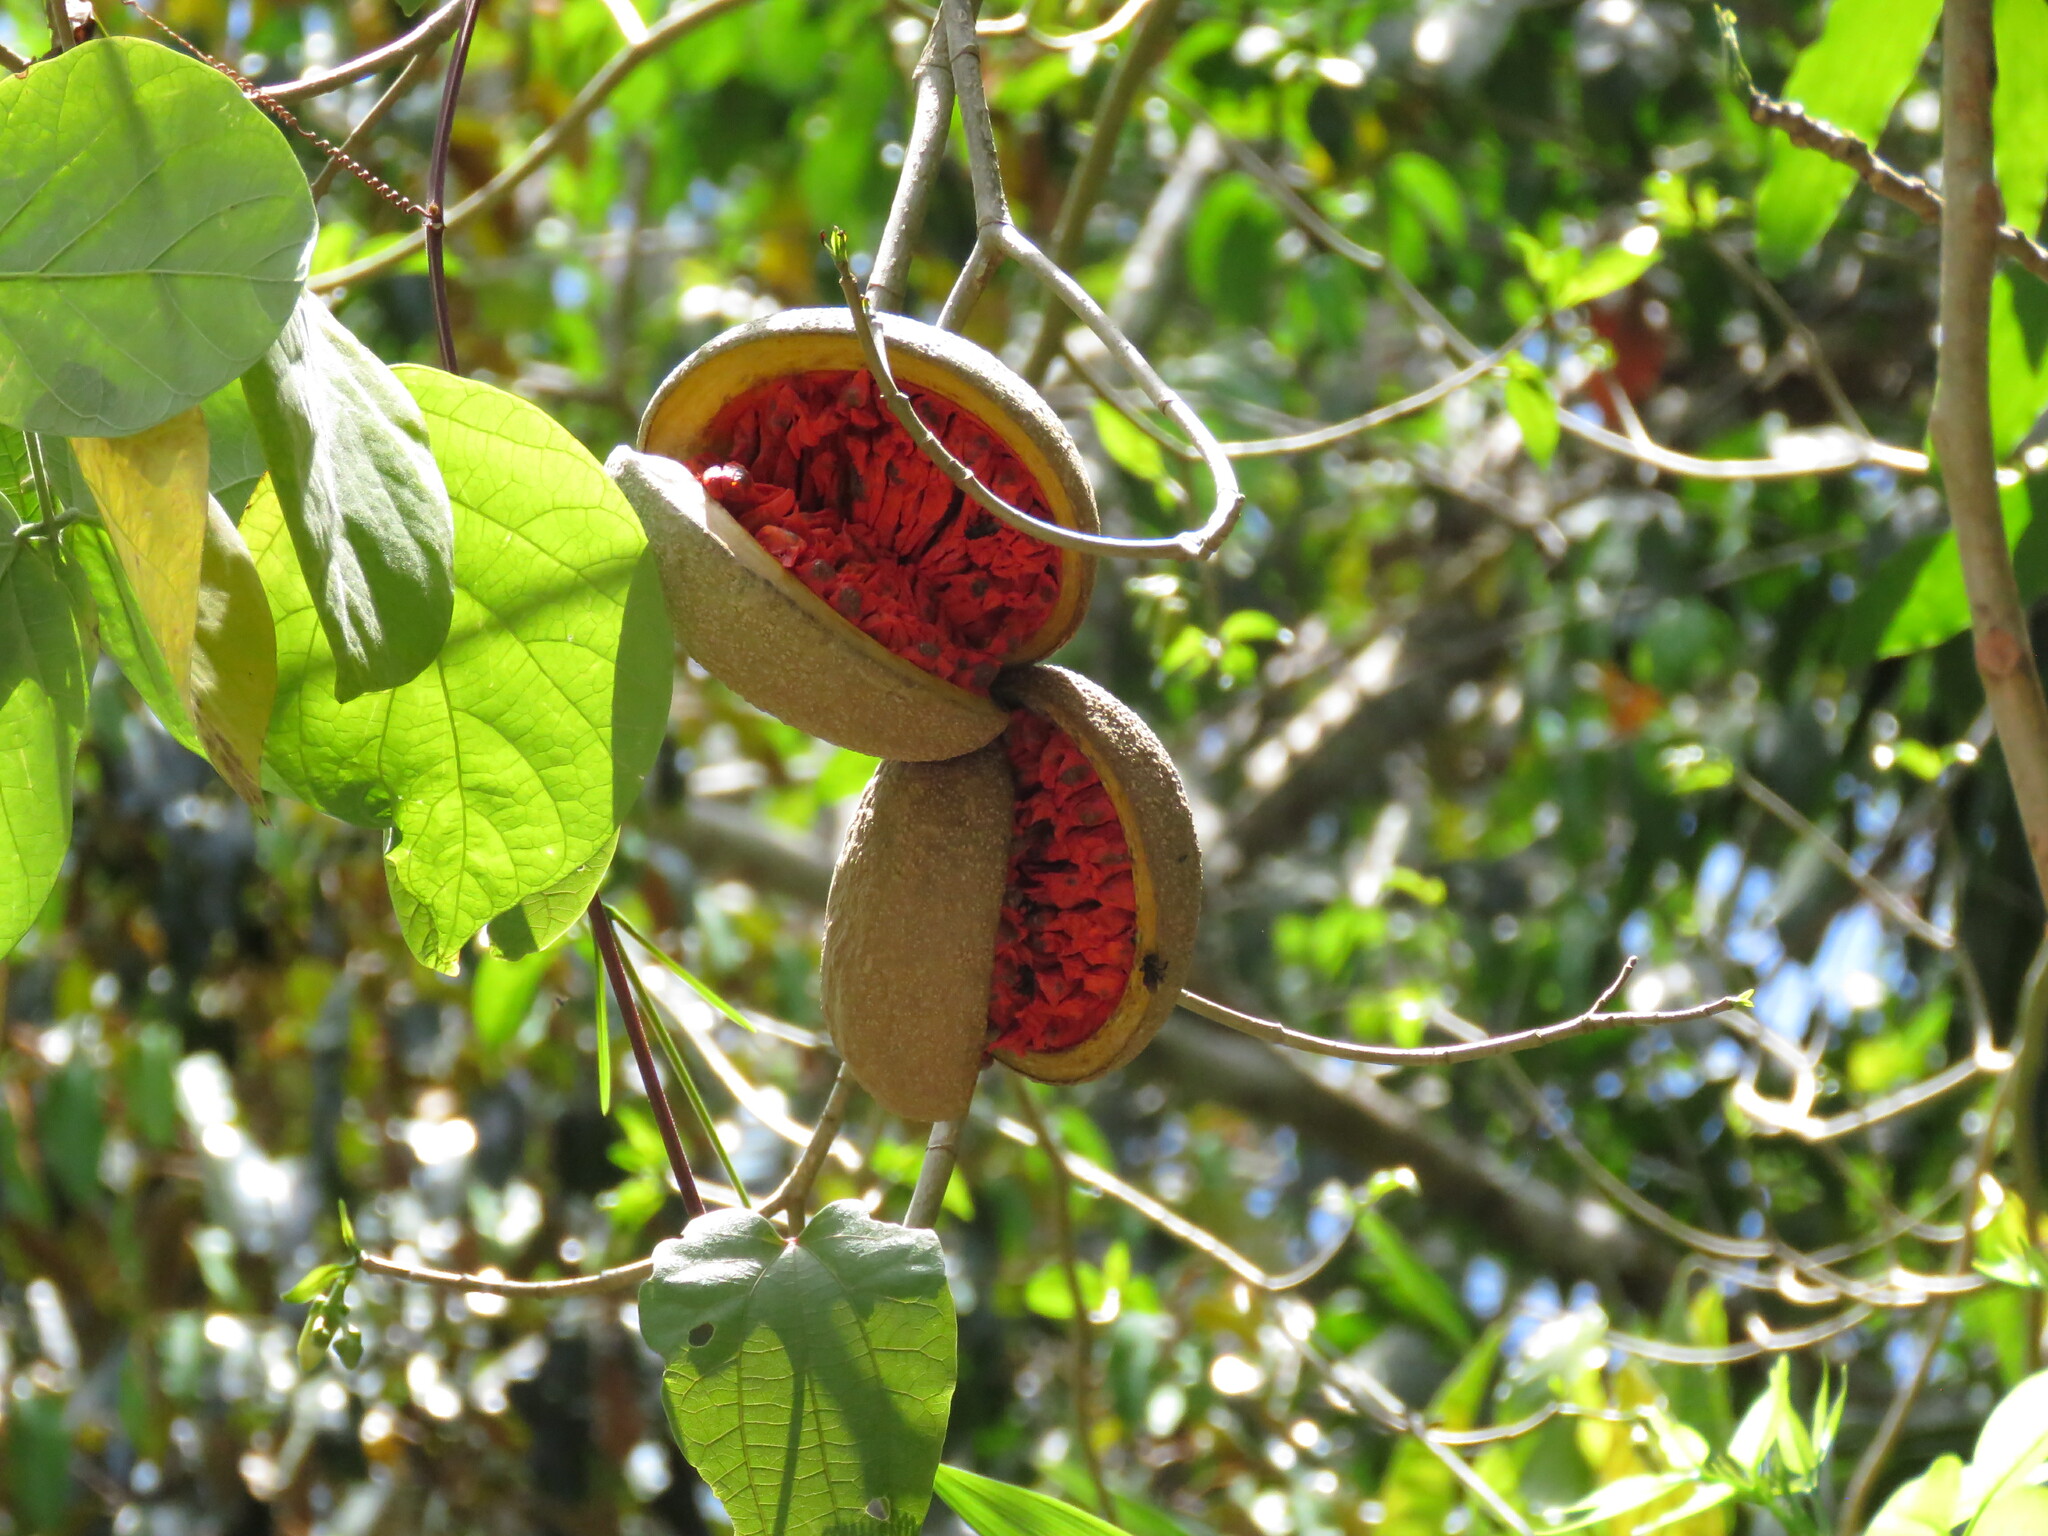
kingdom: Plantae
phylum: Tracheophyta
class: Magnoliopsida
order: Gentianales
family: Apocynaceae
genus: Tabernaemontana
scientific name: Tabernaemontana donnell-smithii
